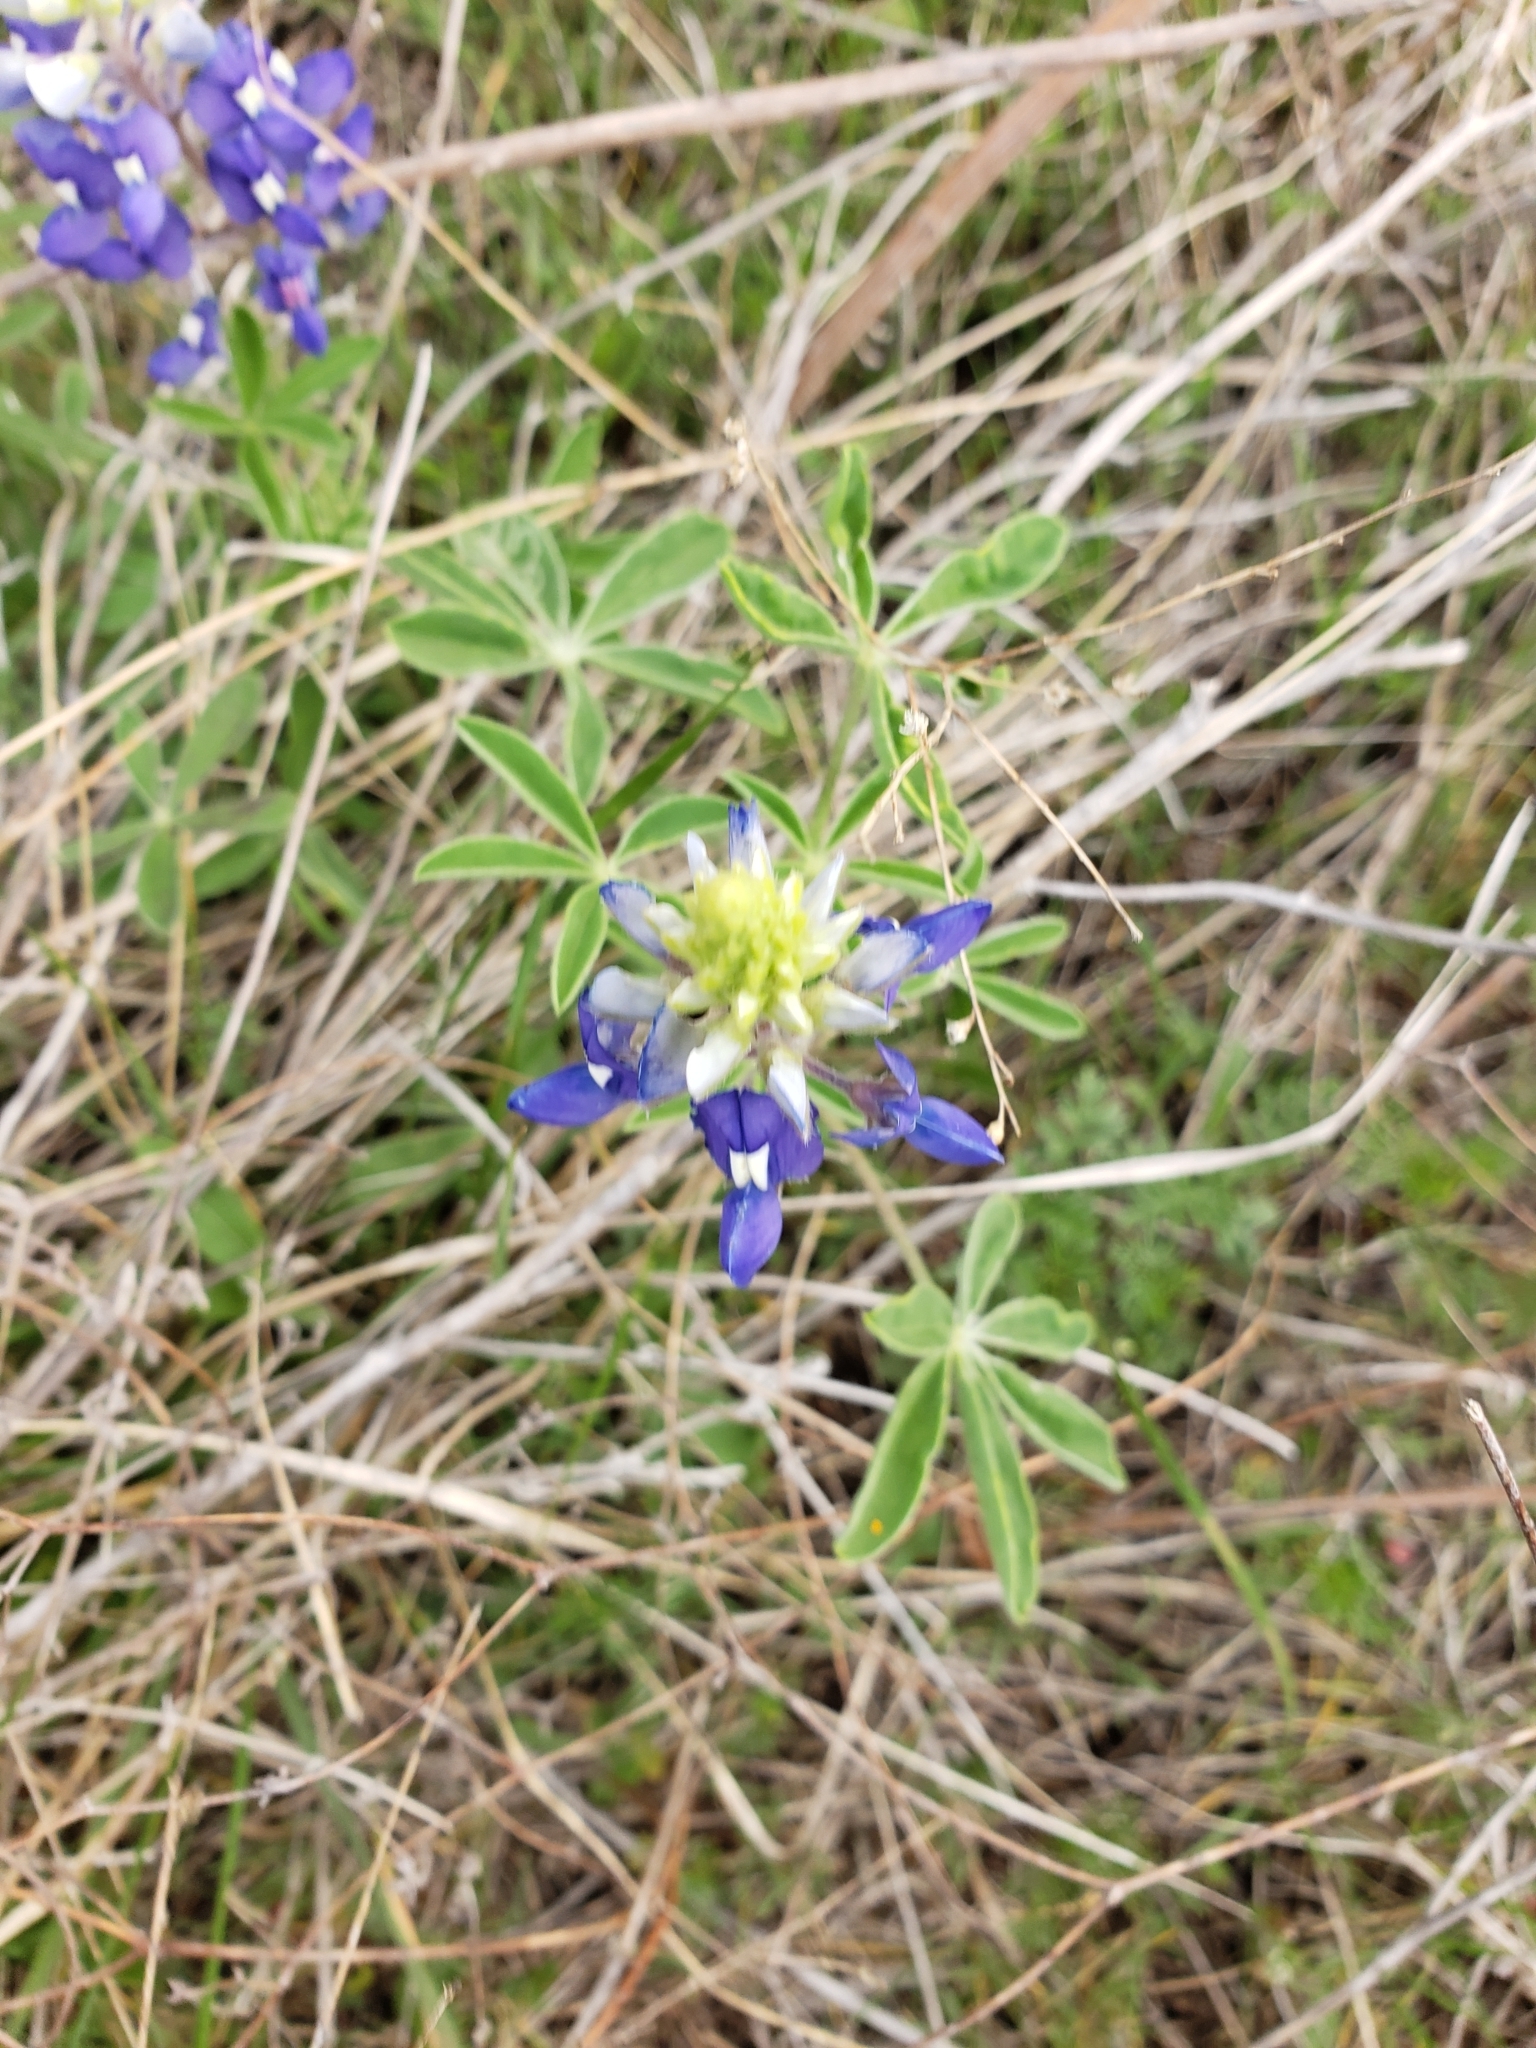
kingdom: Plantae
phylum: Tracheophyta
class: Magnoliopsida
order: Fabales
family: Fabaceae
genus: Lupinus
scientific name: Lupinus texensis
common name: Texas bluebonnet
